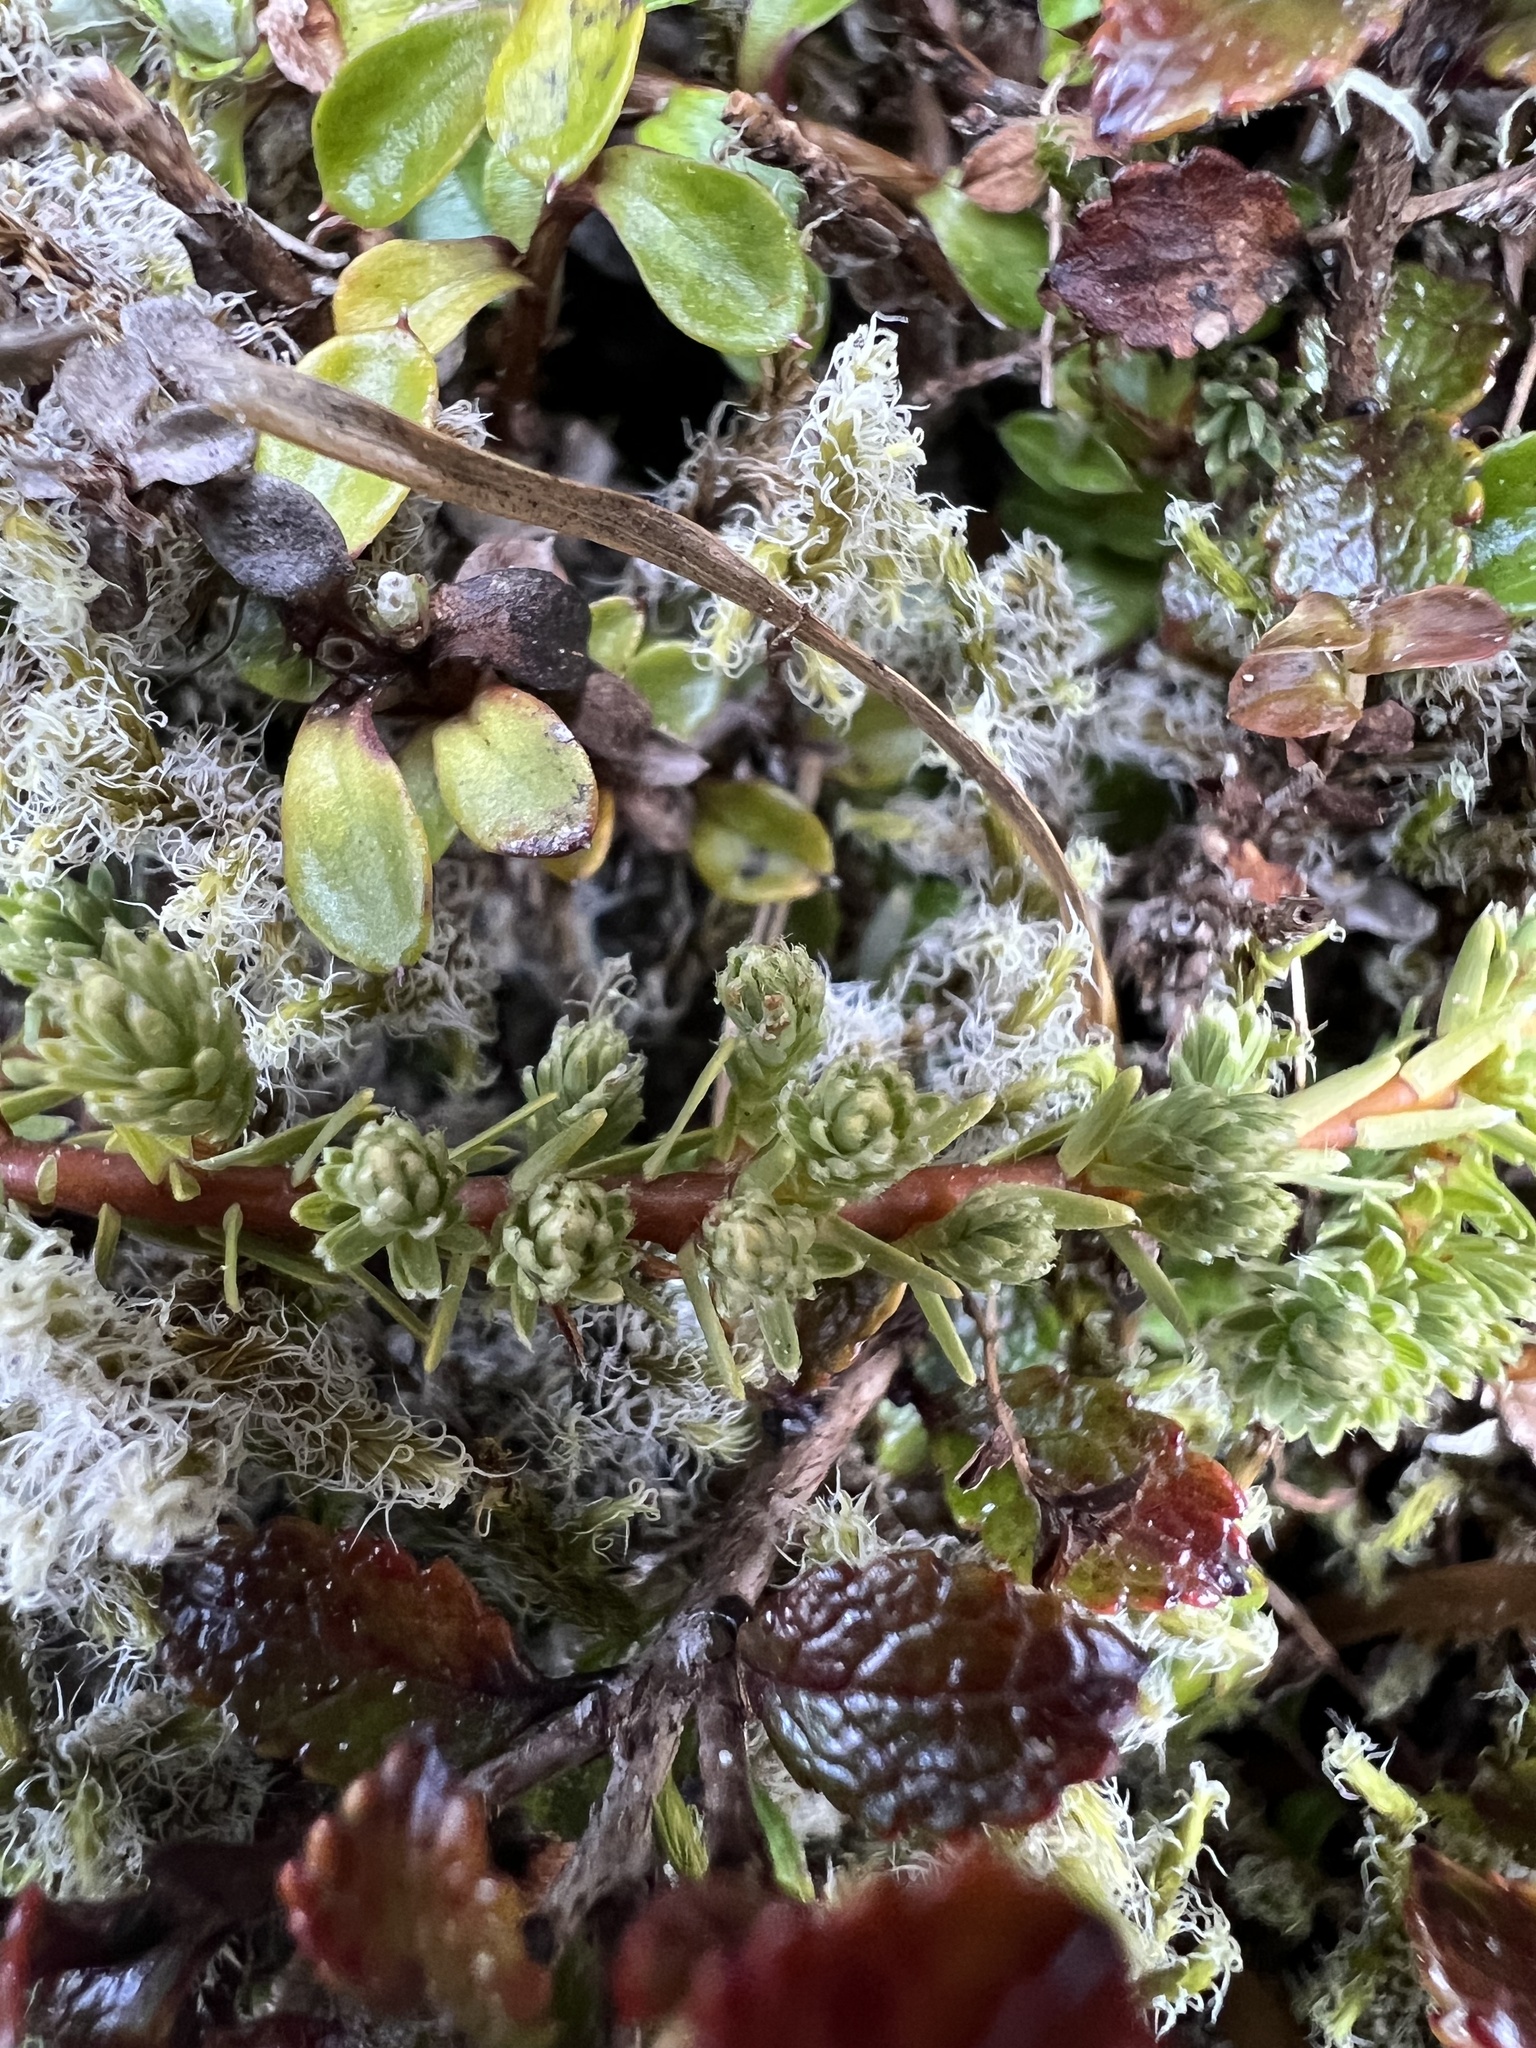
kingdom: Plantae
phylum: Tracheophyta
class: Magnoliopsida
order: Malvales
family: Thymelaeaceae
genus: Kelleria
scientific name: Kelleria laxa
